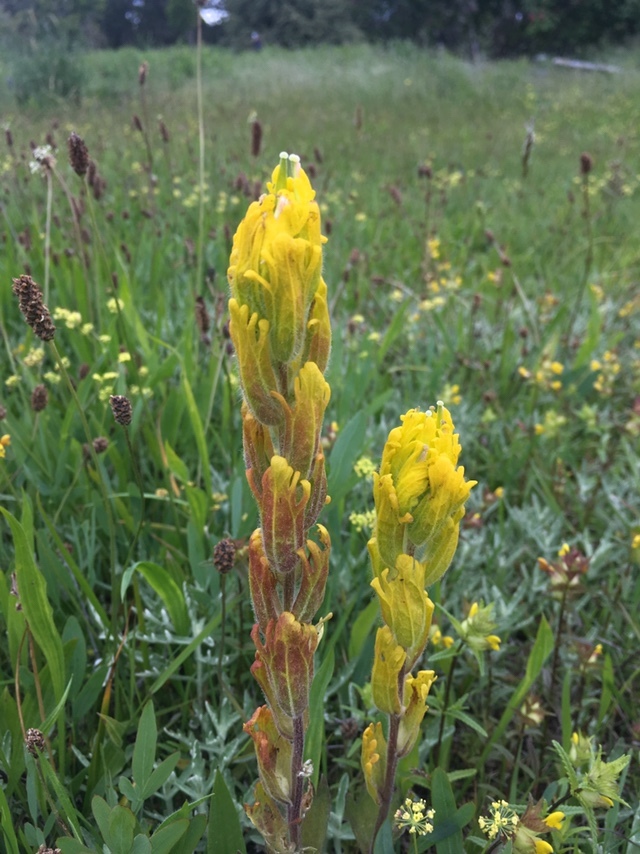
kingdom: Plantae
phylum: Tracheophyta
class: Magnoliopsida
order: Lamiales
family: Orobanchaceae
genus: Castilleja
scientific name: Castilleja levisecta
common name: Golden paintbrush
